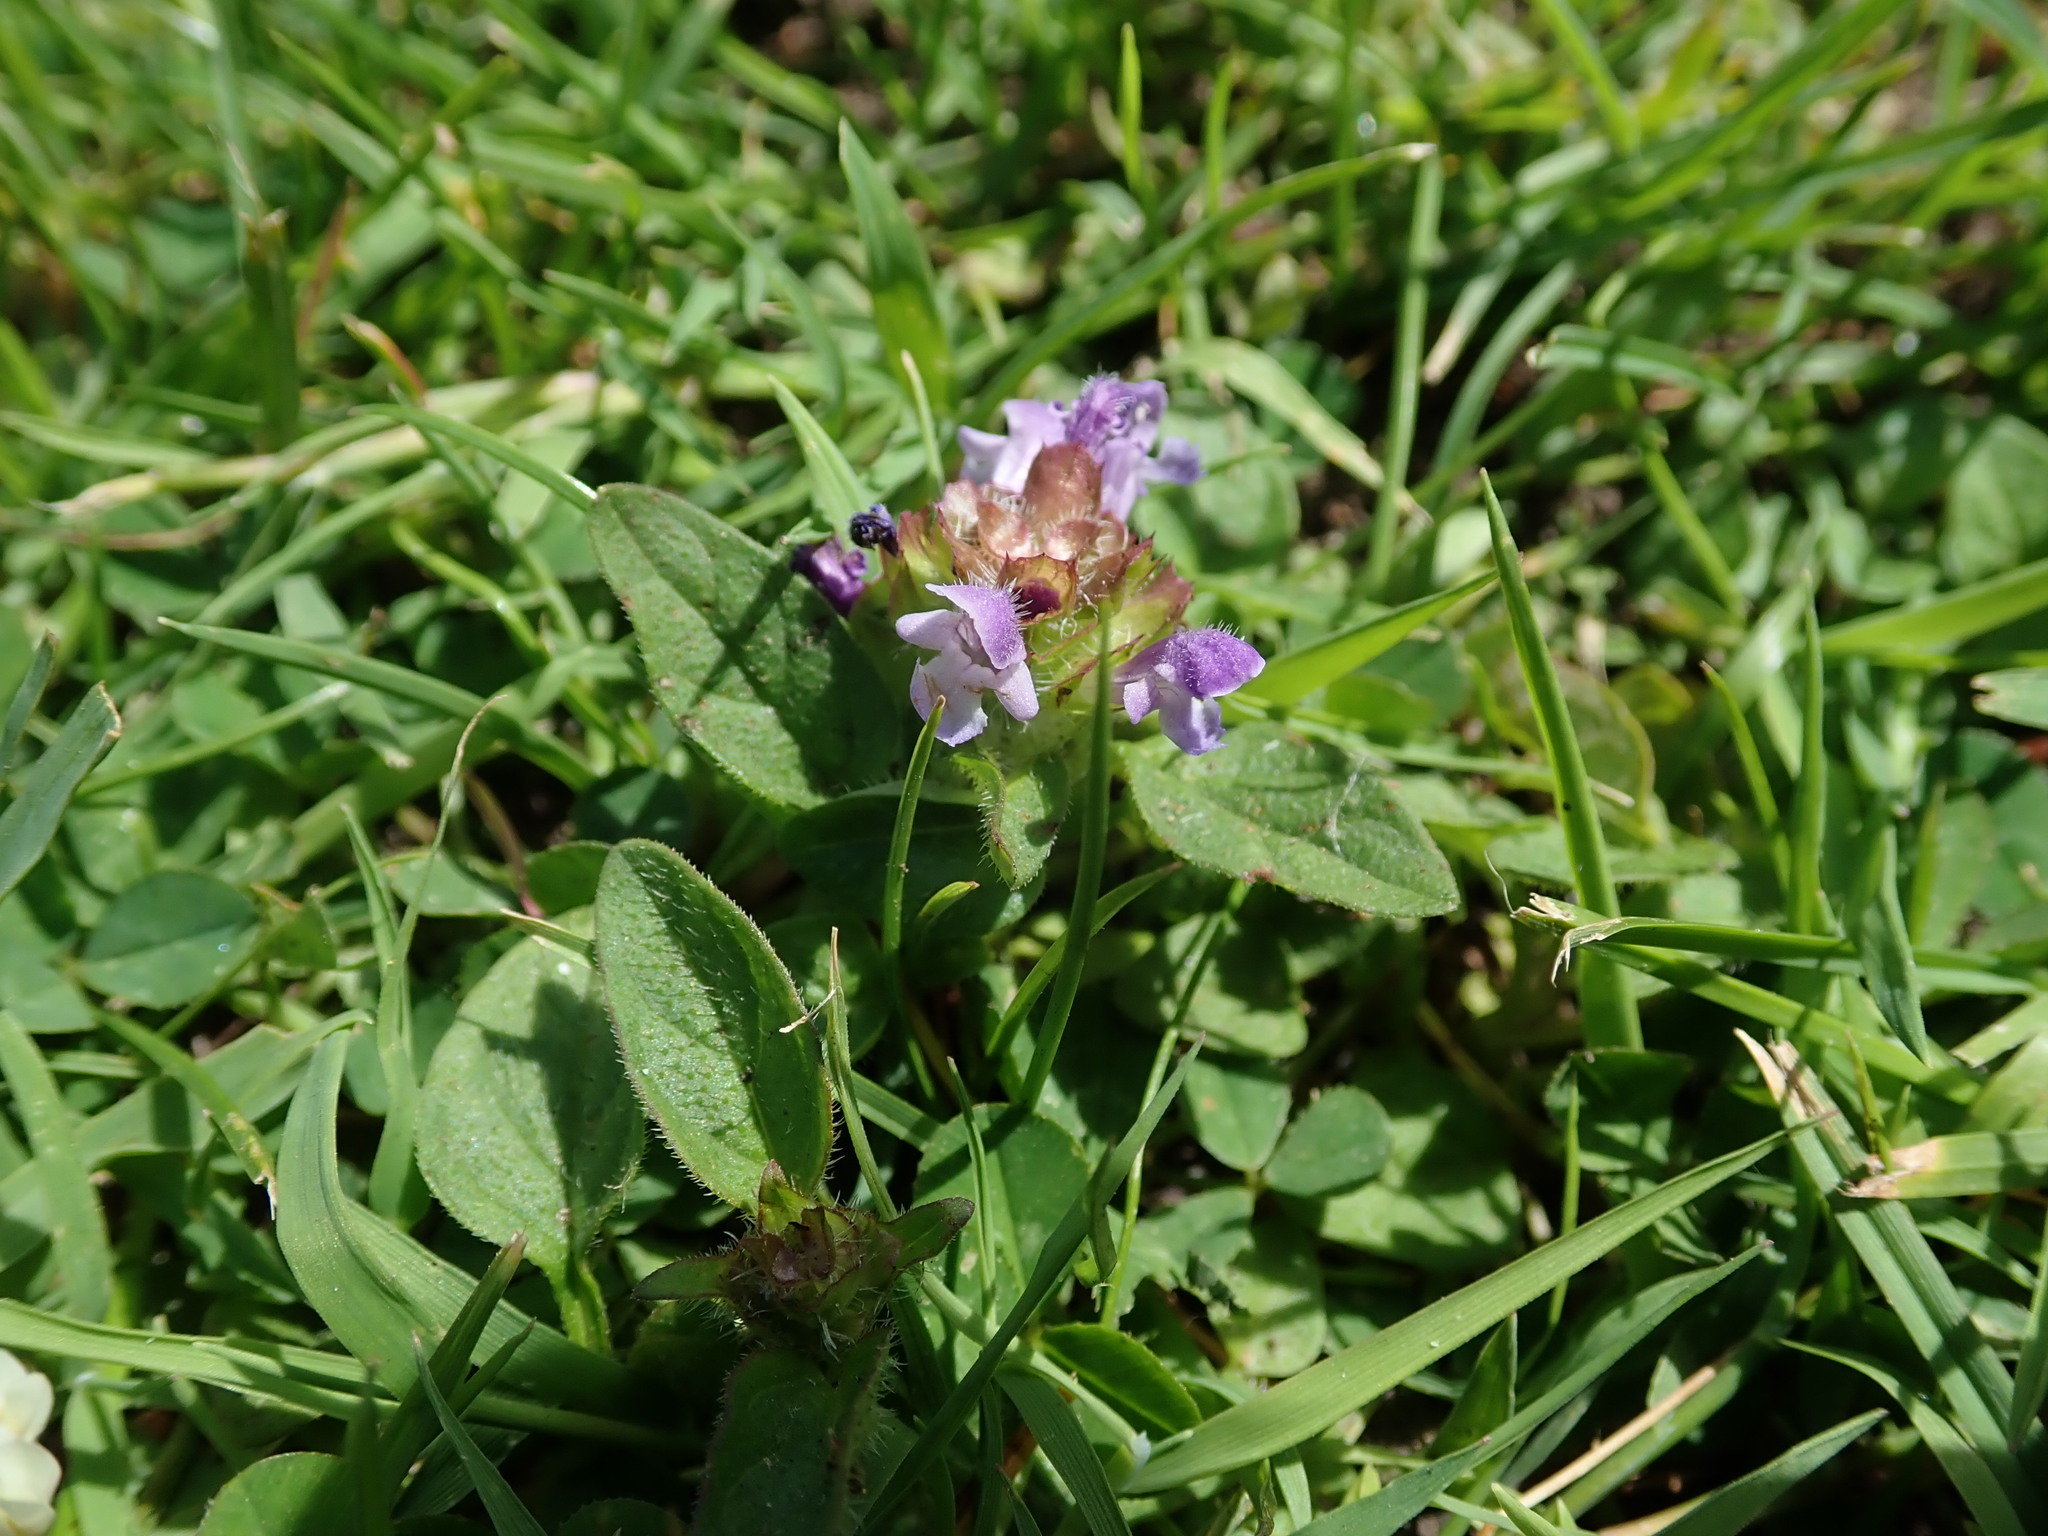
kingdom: Plantae
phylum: Tracheophyta
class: Magnoliopsida
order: Lamiales
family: Lamiaceae
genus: Prunella
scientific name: Prunella vulgaris
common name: Heal-all
